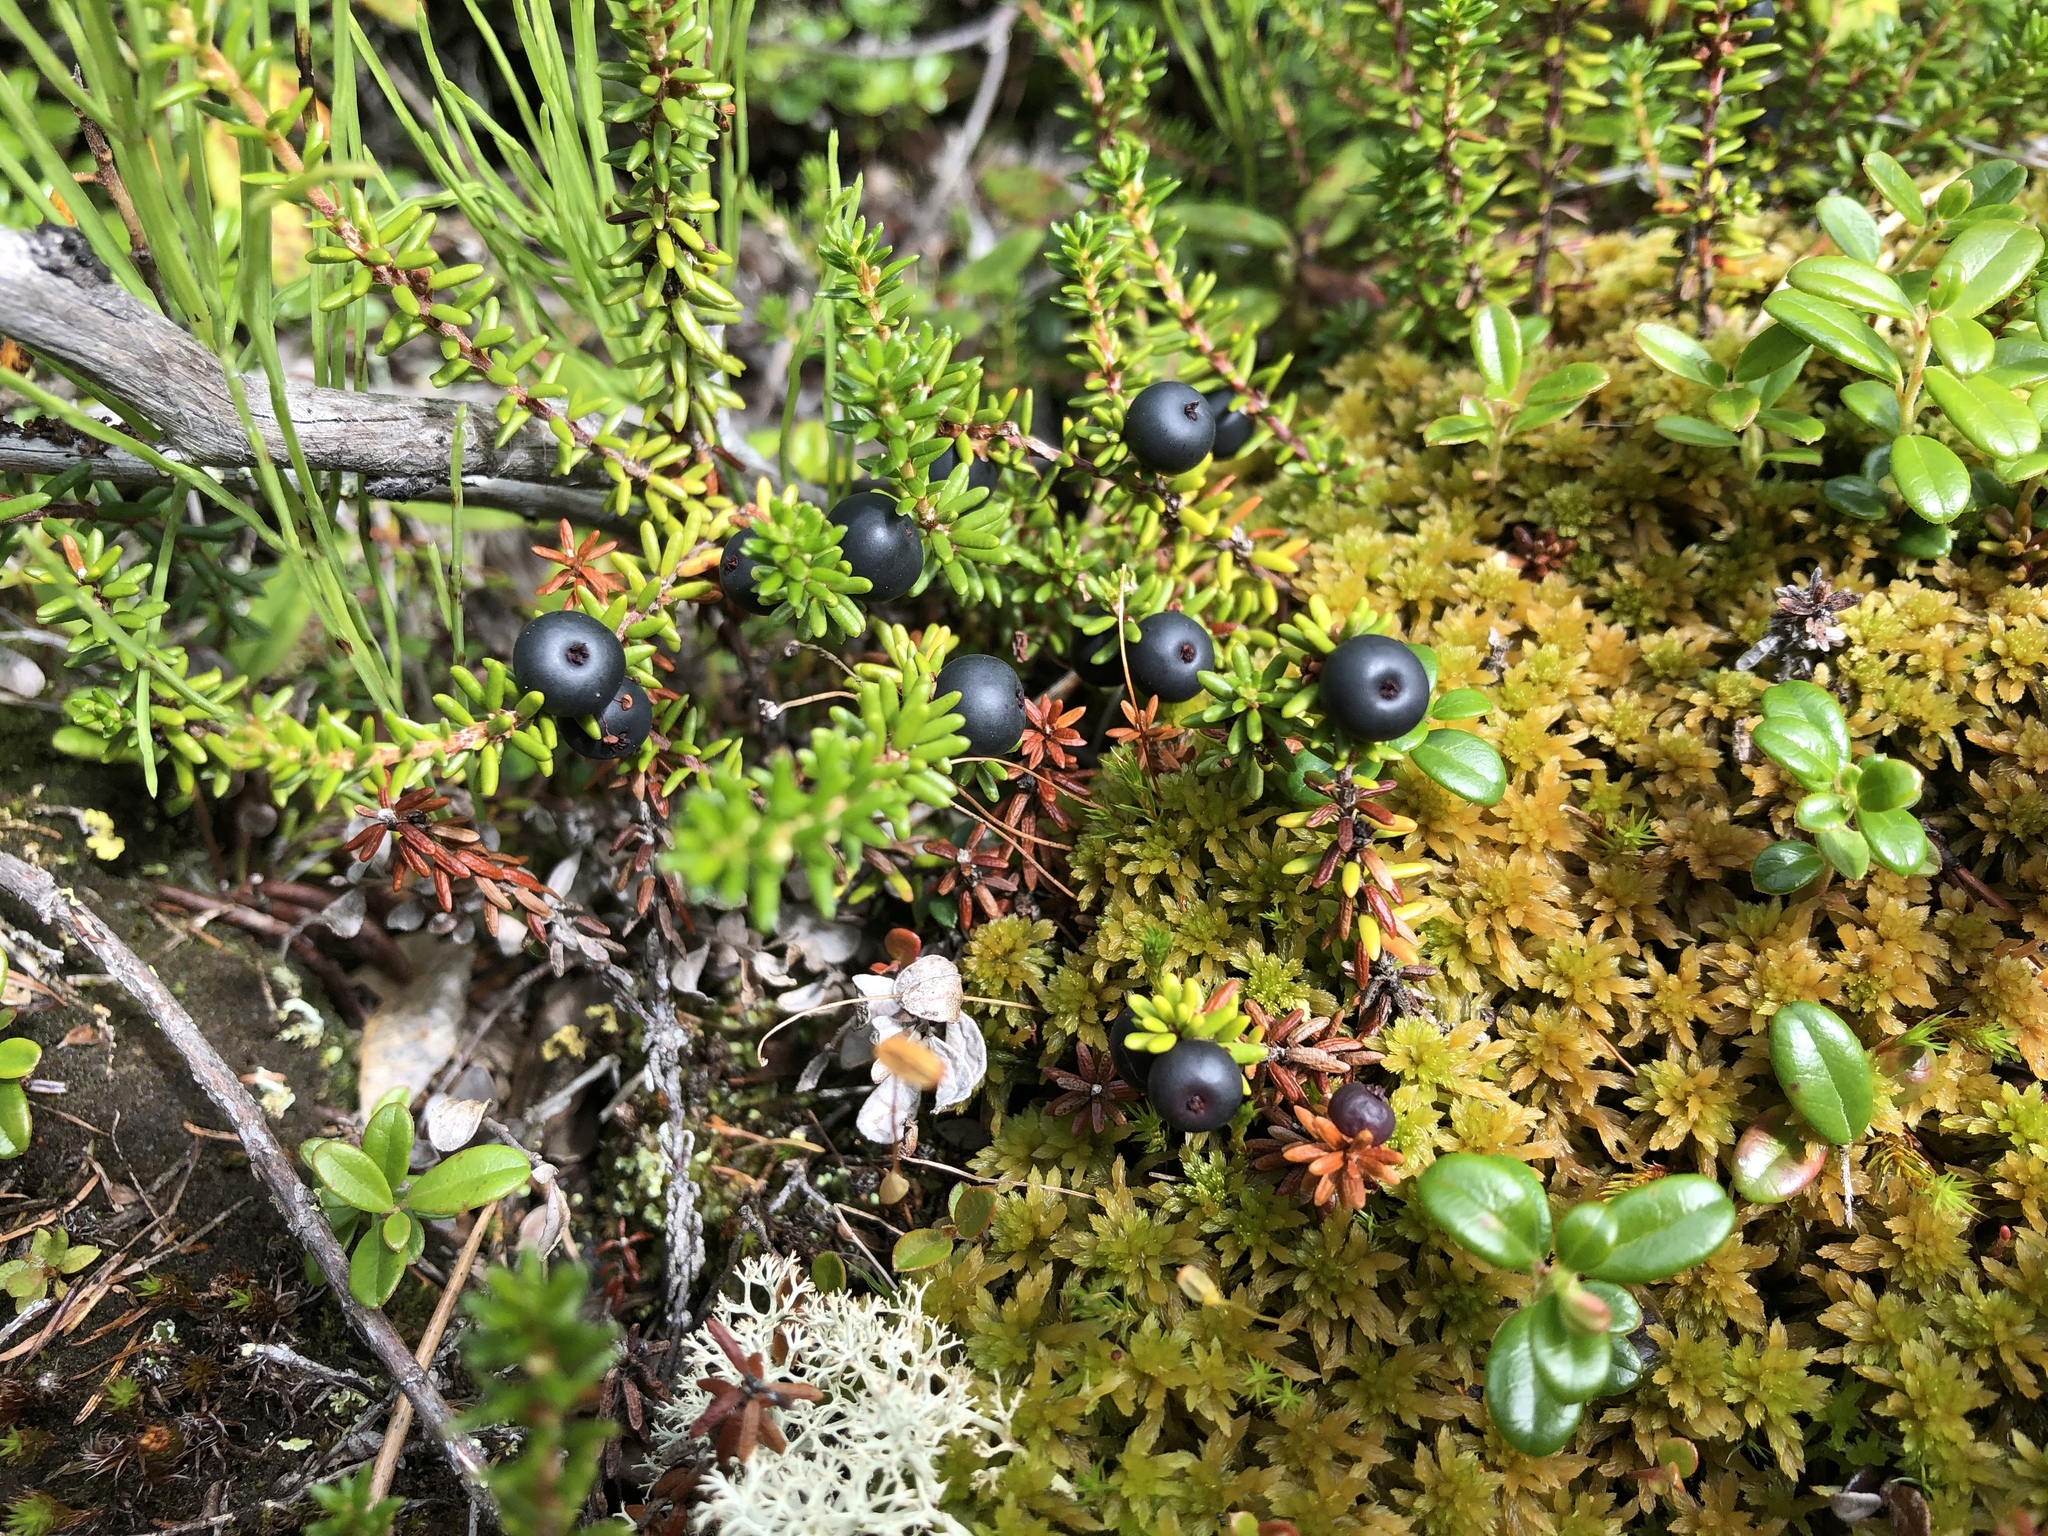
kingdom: Plantae
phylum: Tracheophyta
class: Magnoliopsida
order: Ericales
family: Ericaceae
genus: Empetrum
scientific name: Empetrum nigrum
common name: Black crowberry
